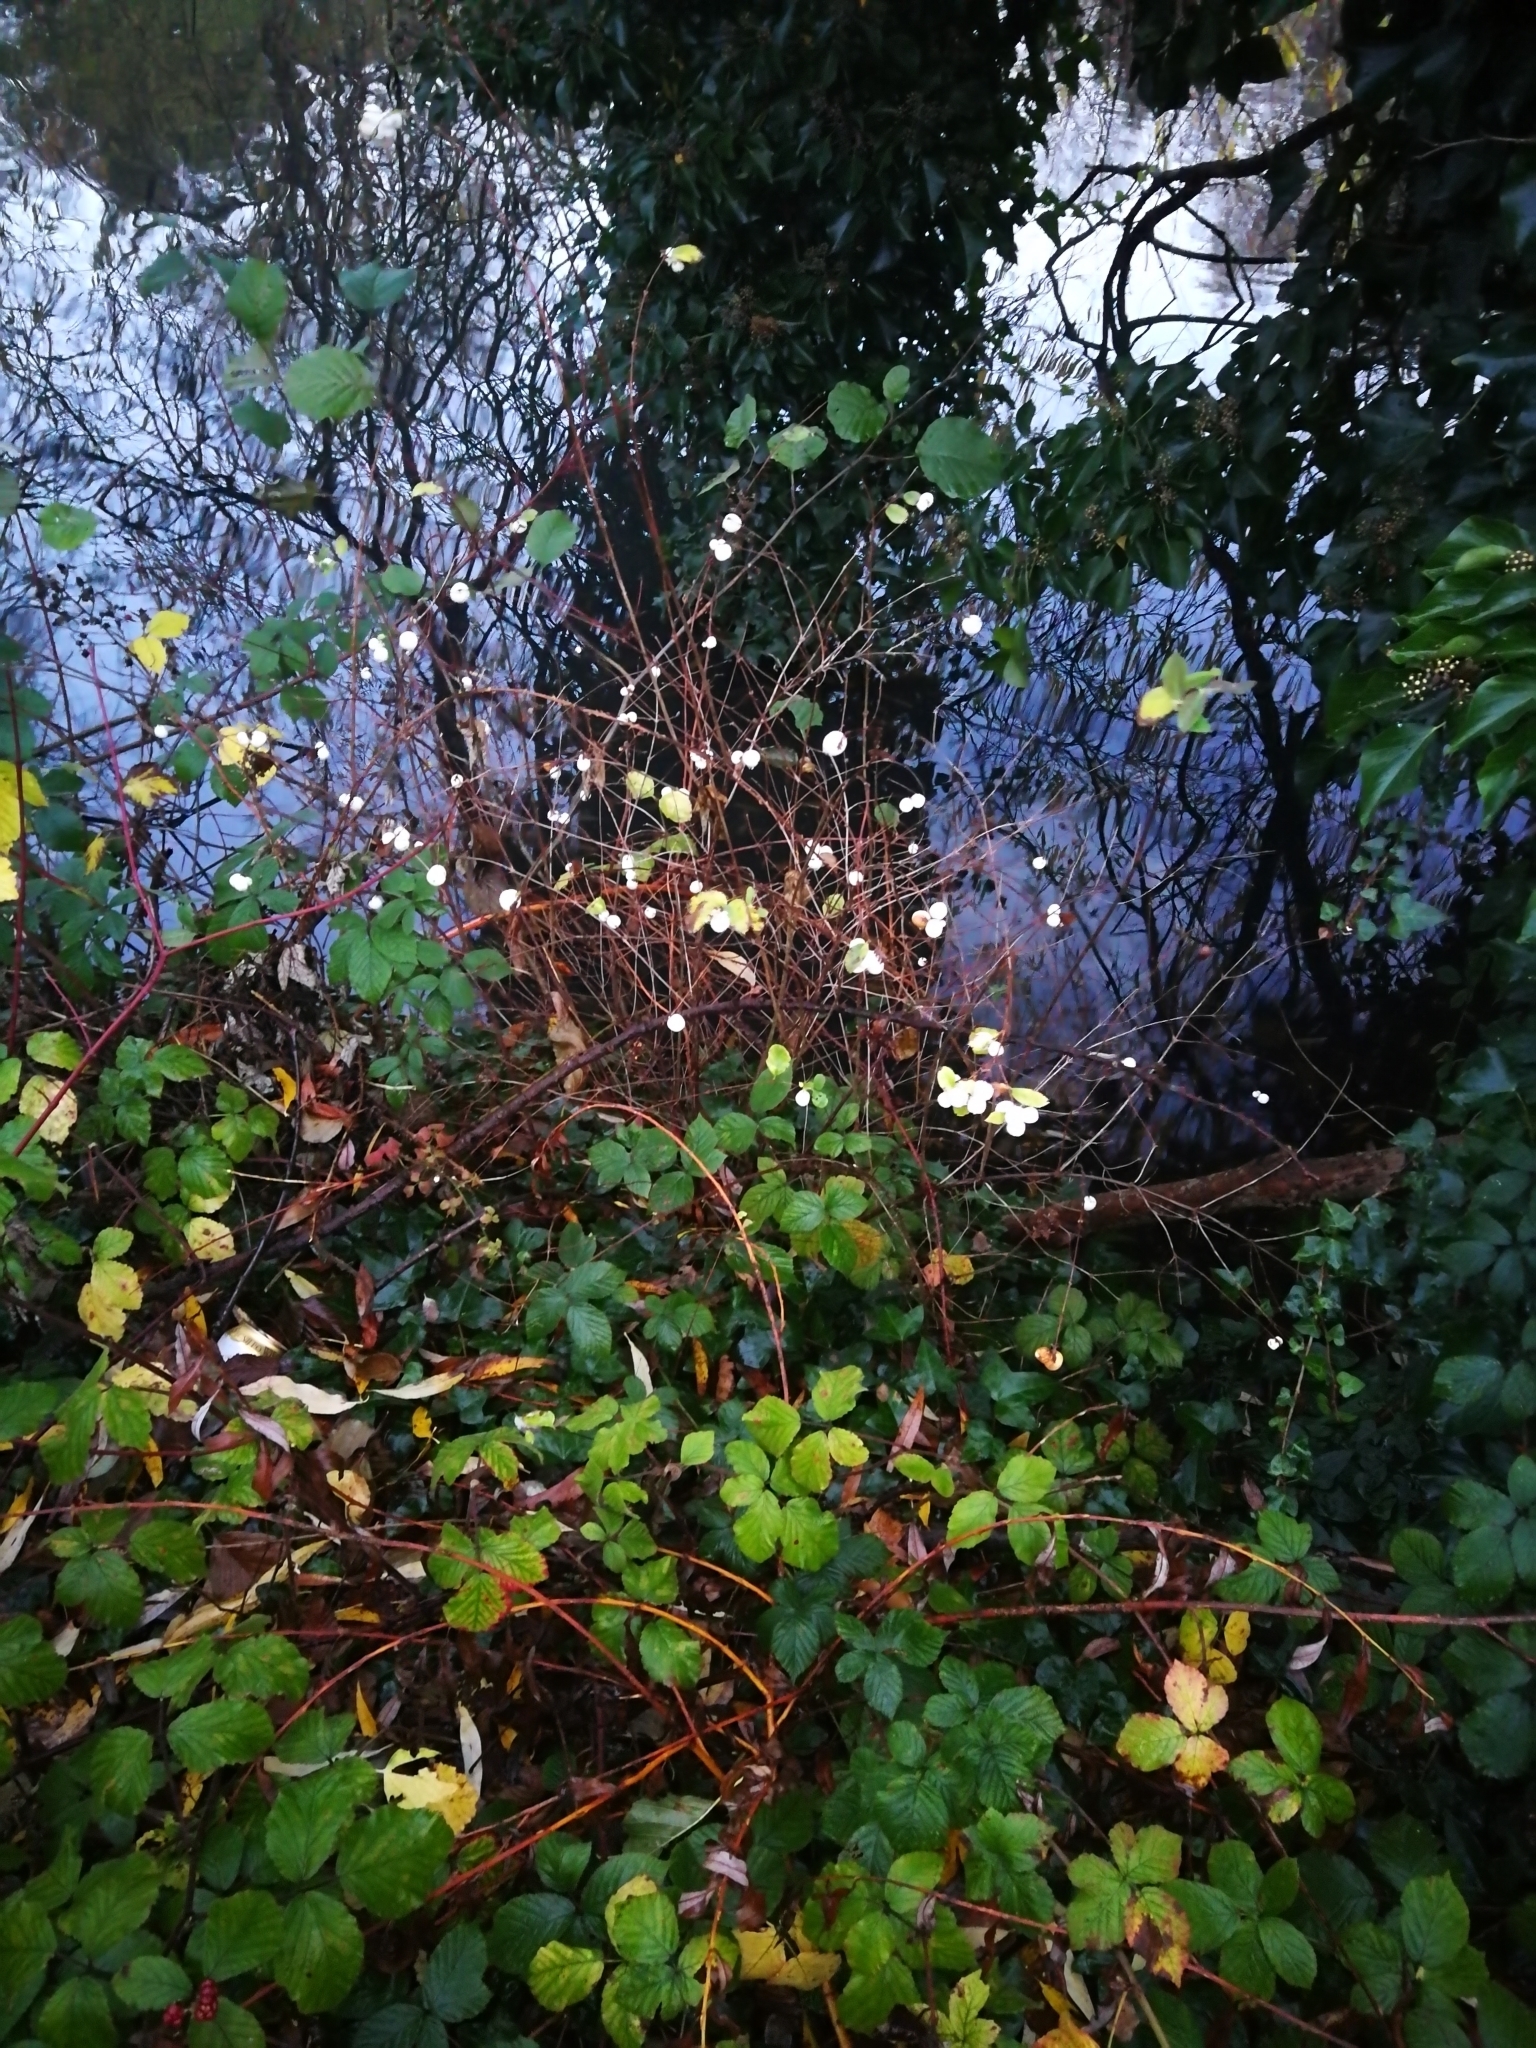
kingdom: Plantae
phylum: Tracheophyta
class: Magnoliopsida
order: Dipsacales
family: Caprifoliaceae
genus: Symphoricarpos
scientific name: Symphoricarpos albus
